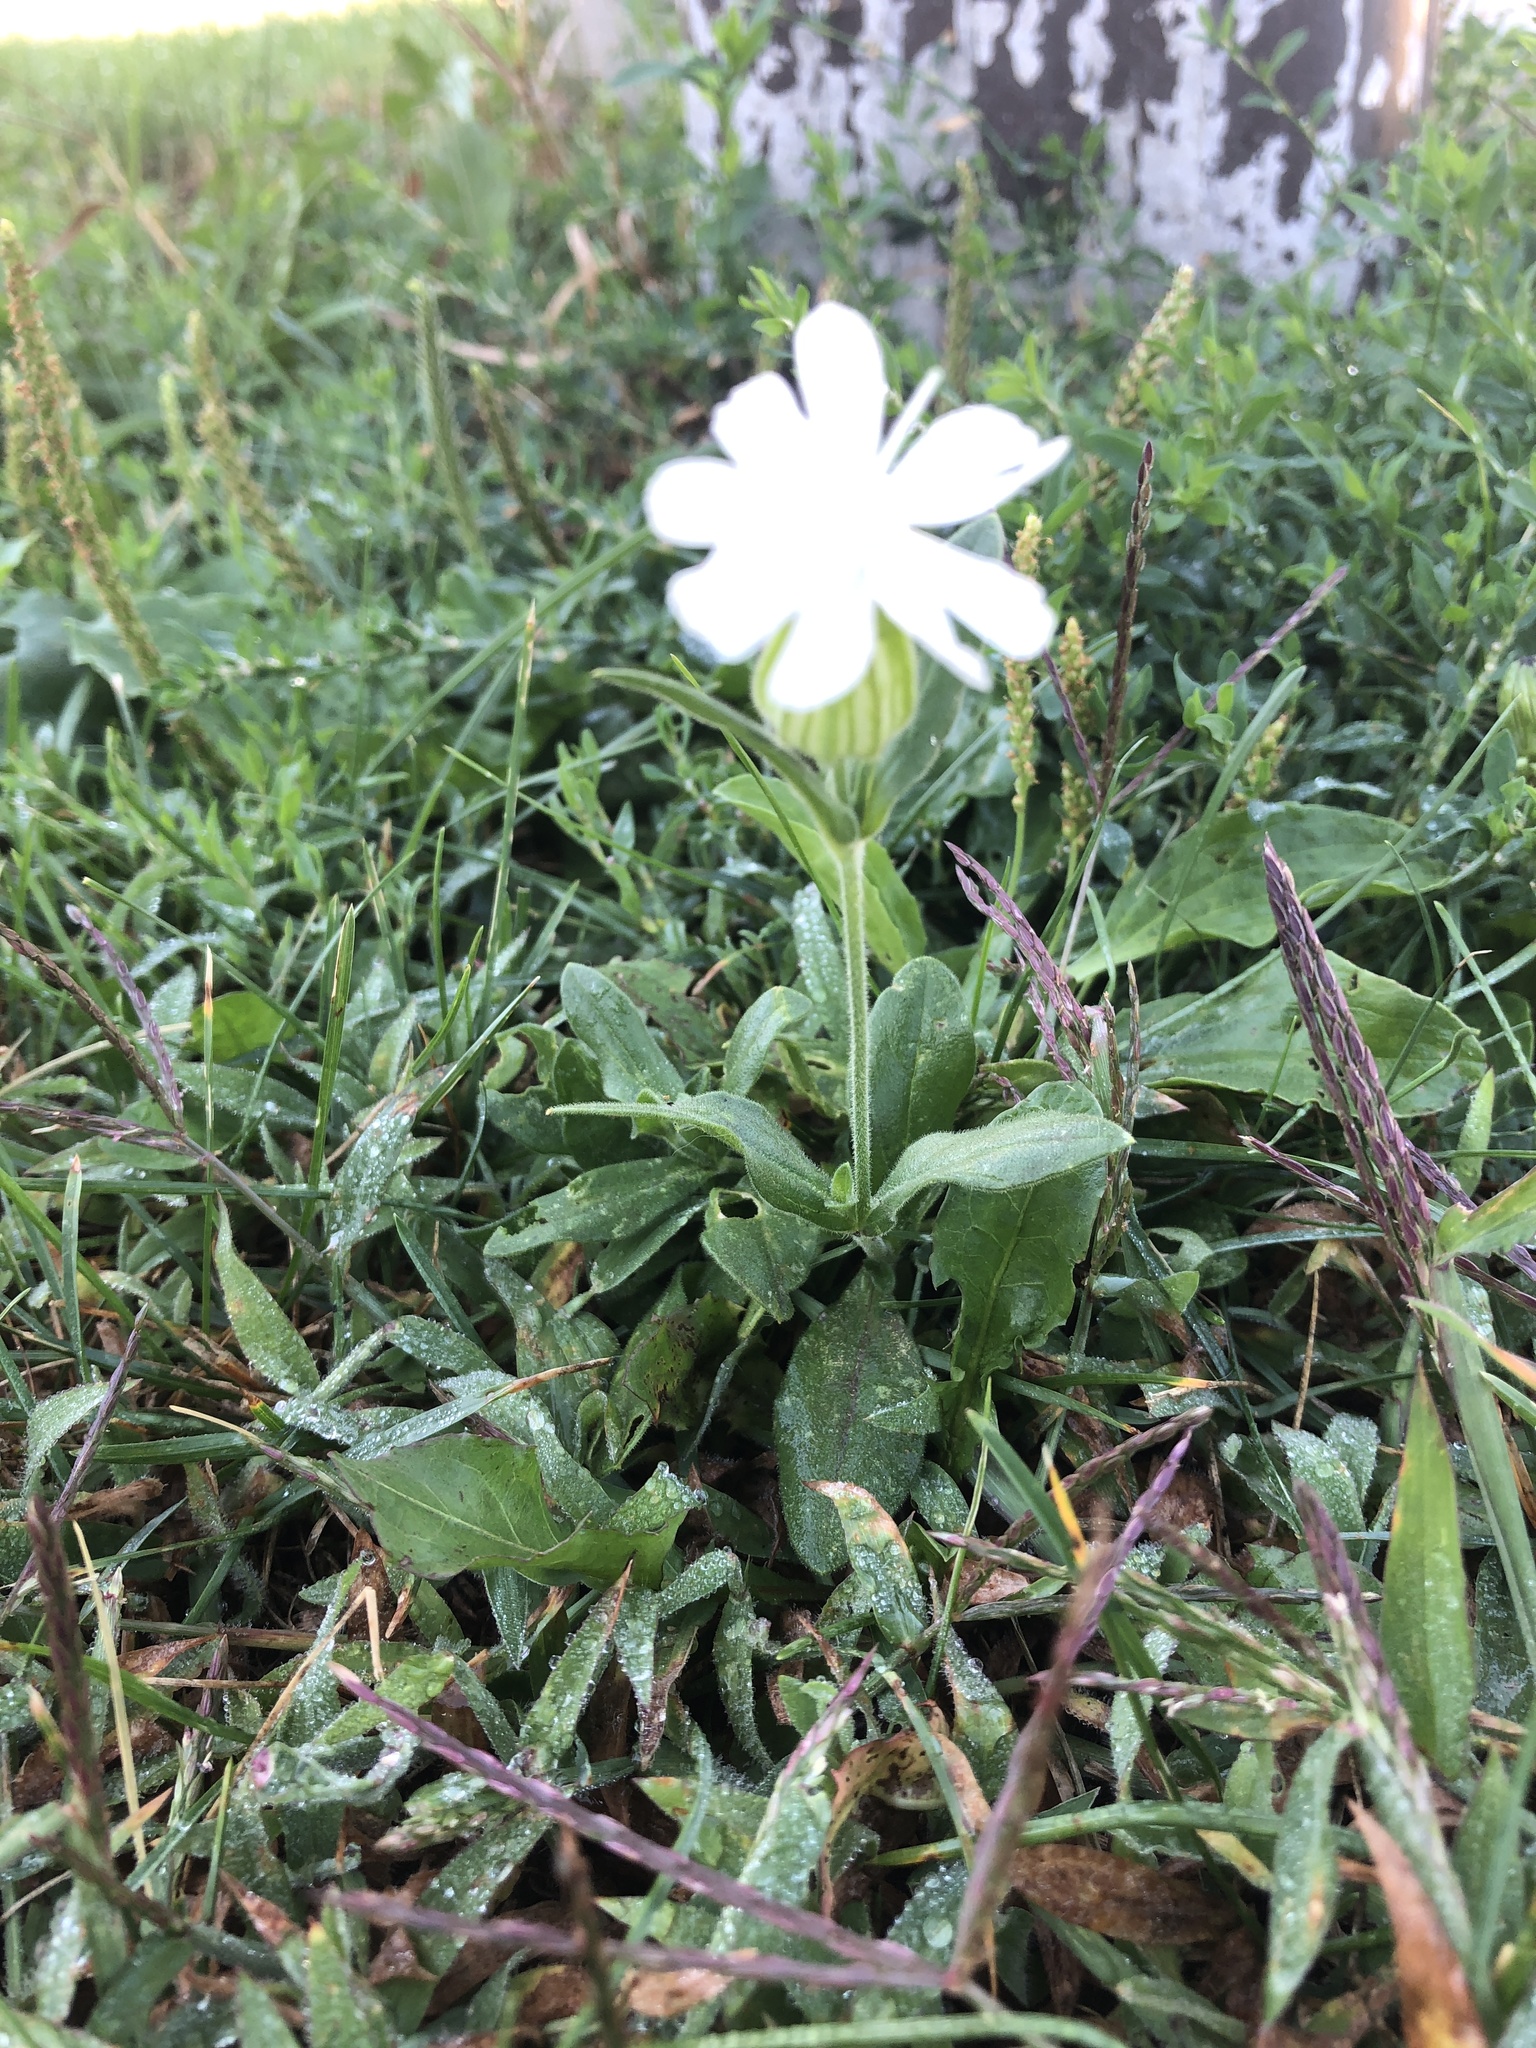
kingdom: Plantae
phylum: Tracheophyta
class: Magnoliopsida
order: Caryophyllales
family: Caryophyllaceae
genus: Silene
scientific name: Silene latifolia
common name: White campion
